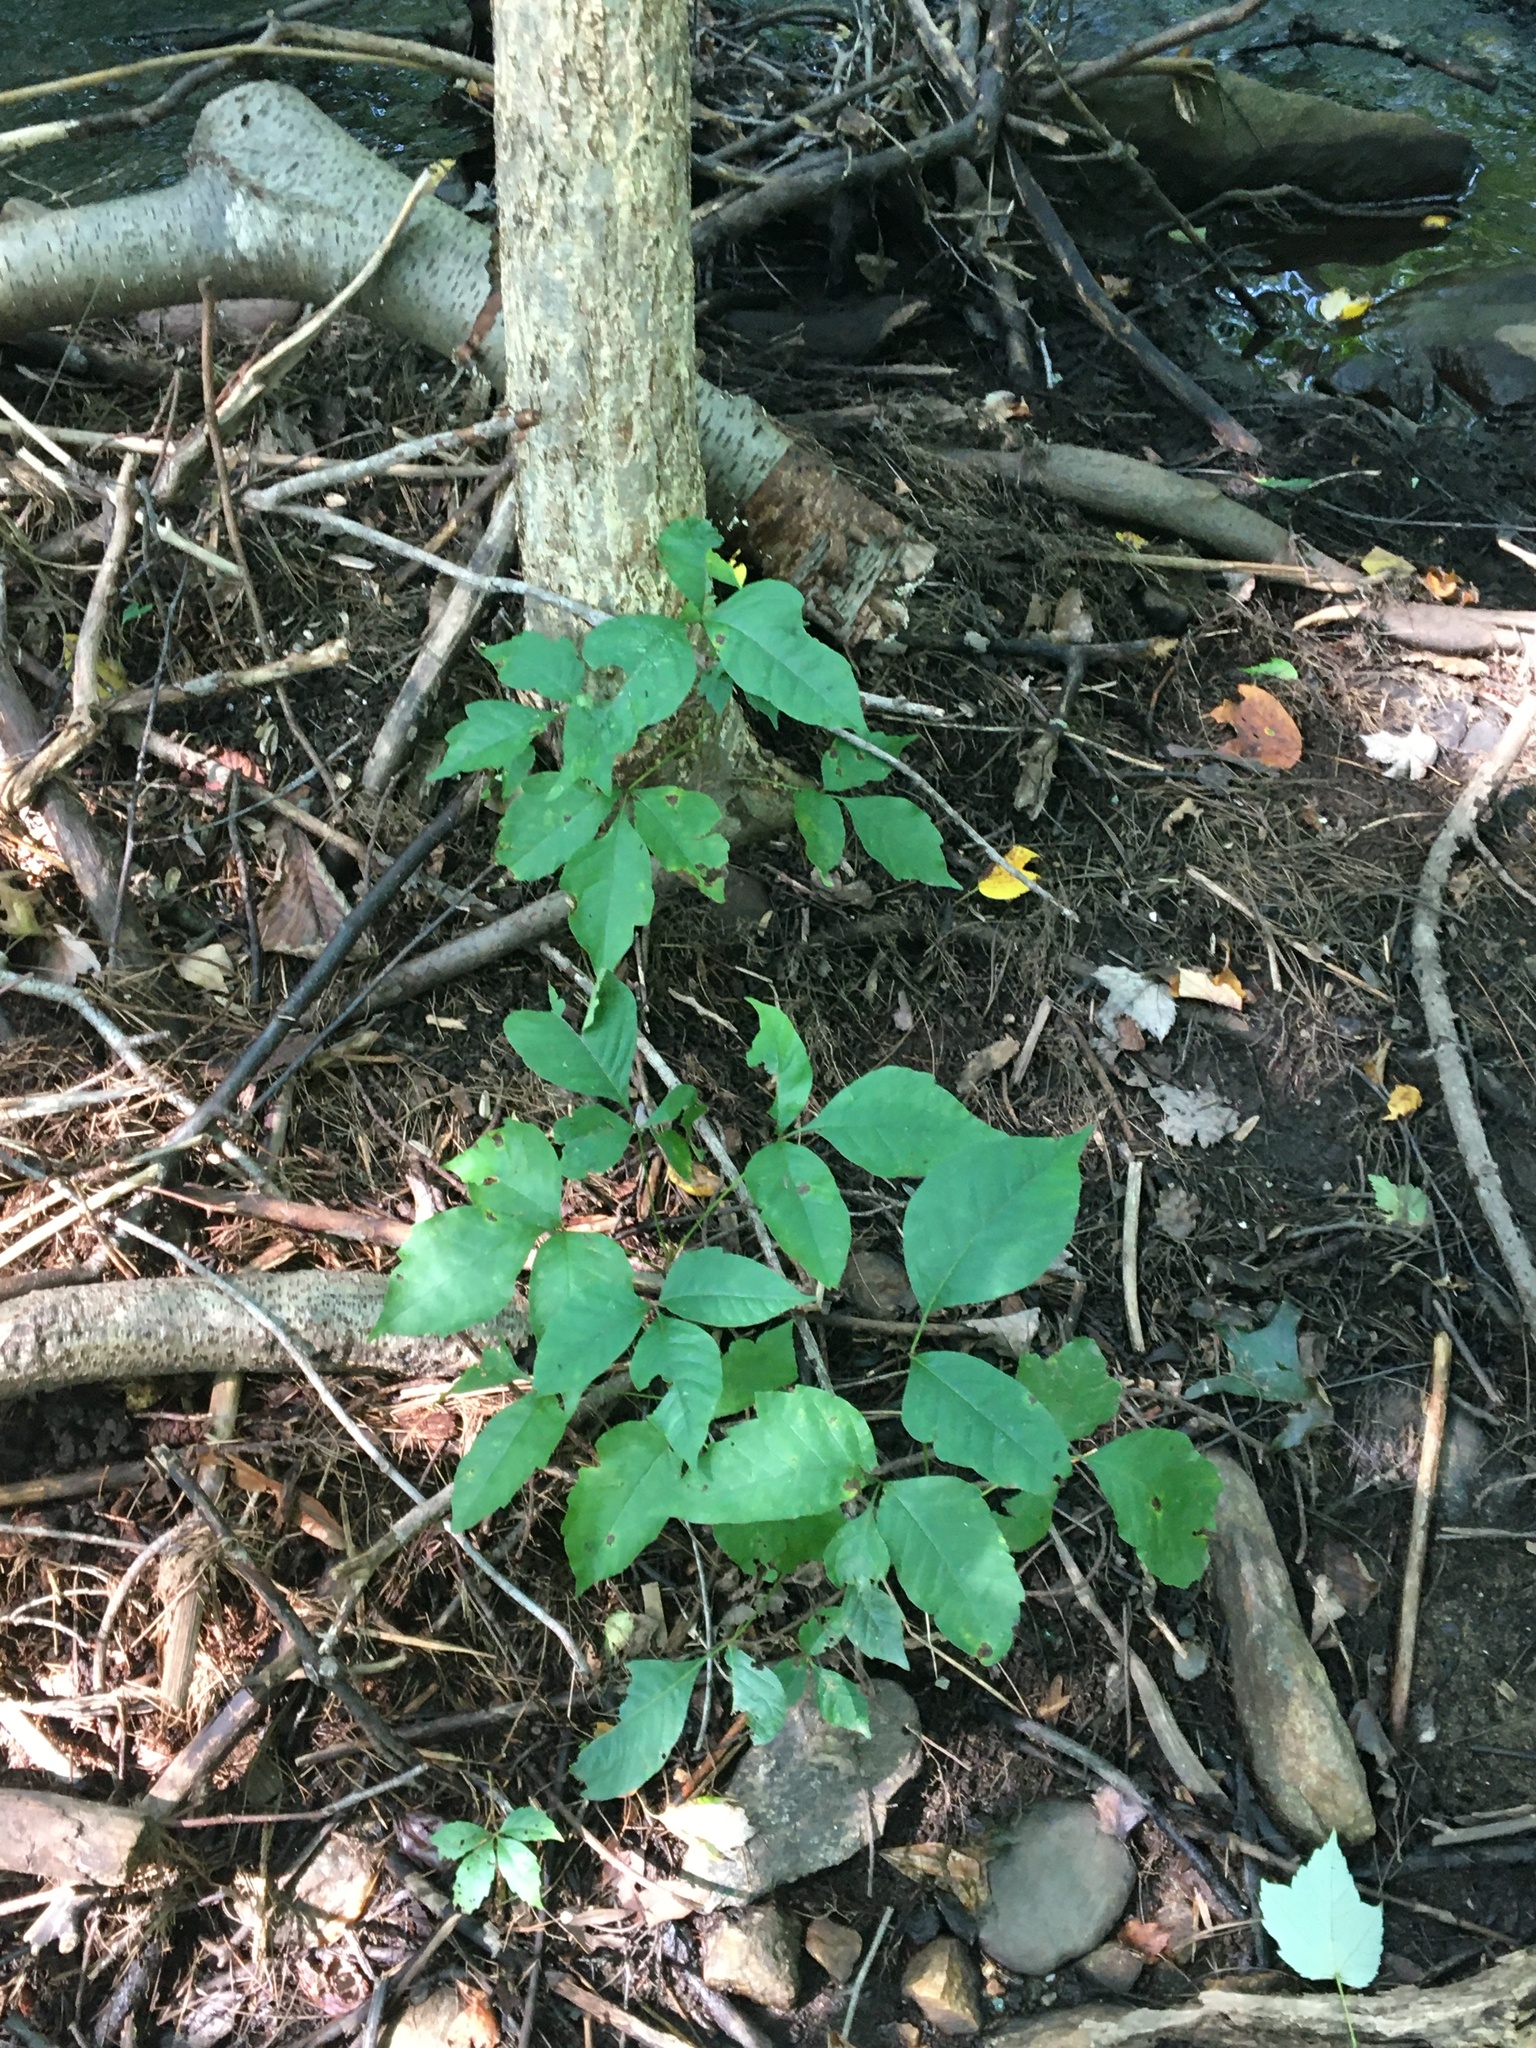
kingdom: Plantae
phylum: Tracheophyta
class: Magnoliopsida
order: Sapindales
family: Anacardiaceae
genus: Toxicodendron
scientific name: Toxicodendron radicans
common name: Poison ivy
